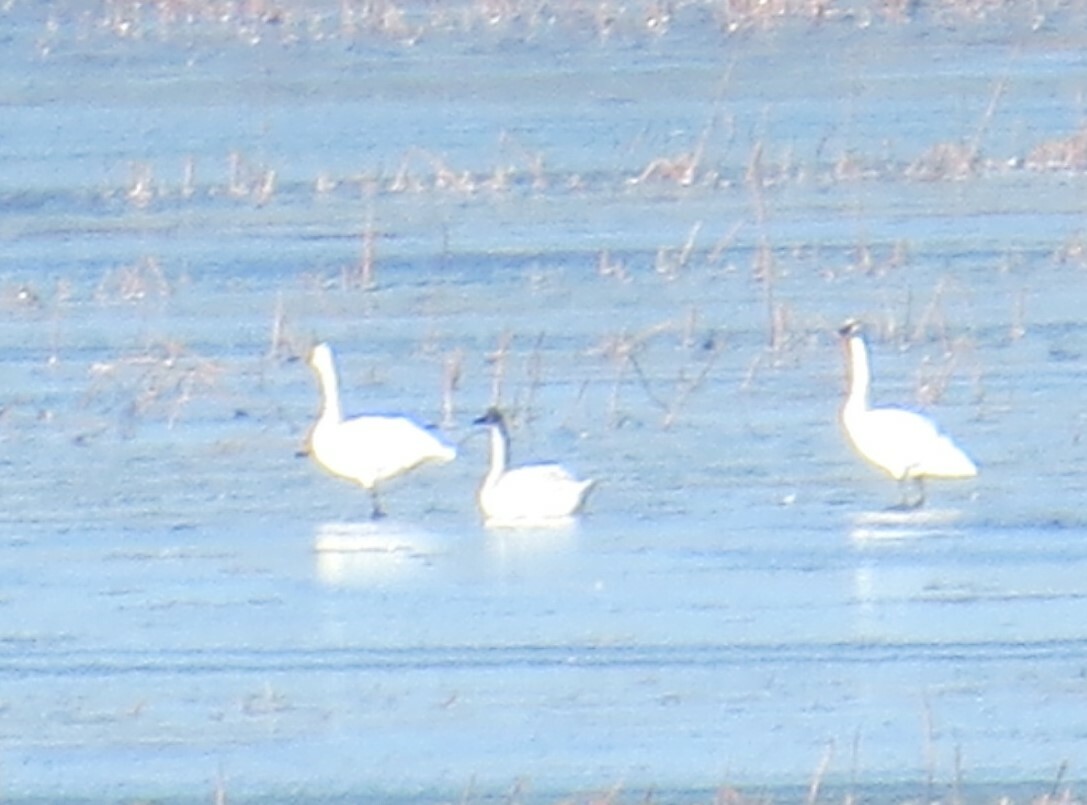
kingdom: Animalia
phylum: Chordata
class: Aves
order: Anseriformes
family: Anatidae
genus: Cygnus
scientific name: Cygnus columbianus
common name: Tundra swan
